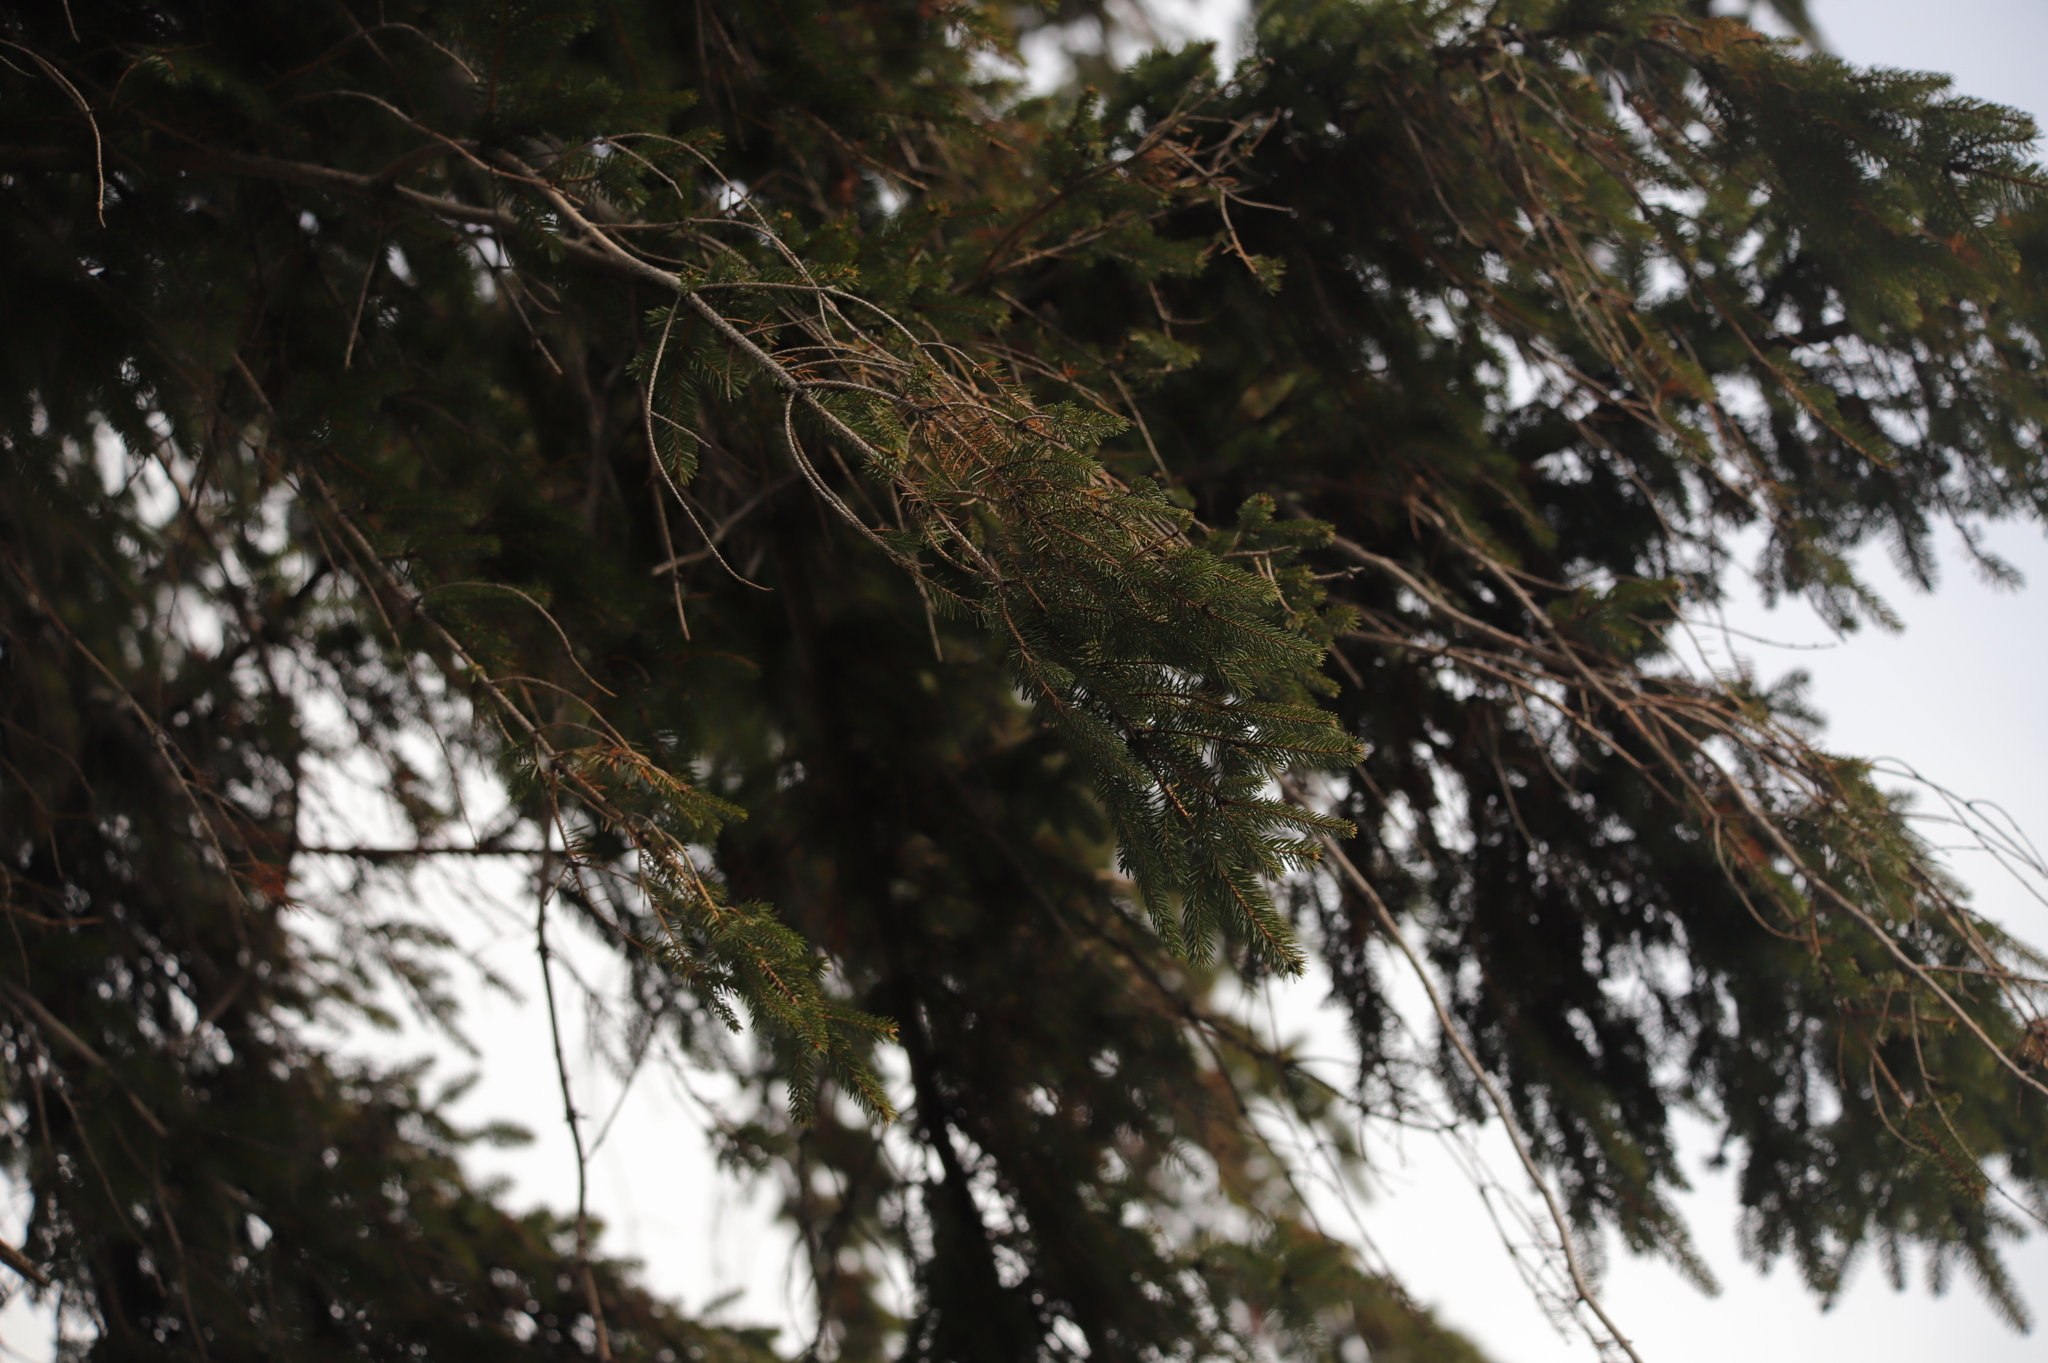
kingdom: Plantae
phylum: Tracheophyta
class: Pinopsida
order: Pinales
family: Pinaceae
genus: Picea
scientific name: Picea abies
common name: Norway spruce
